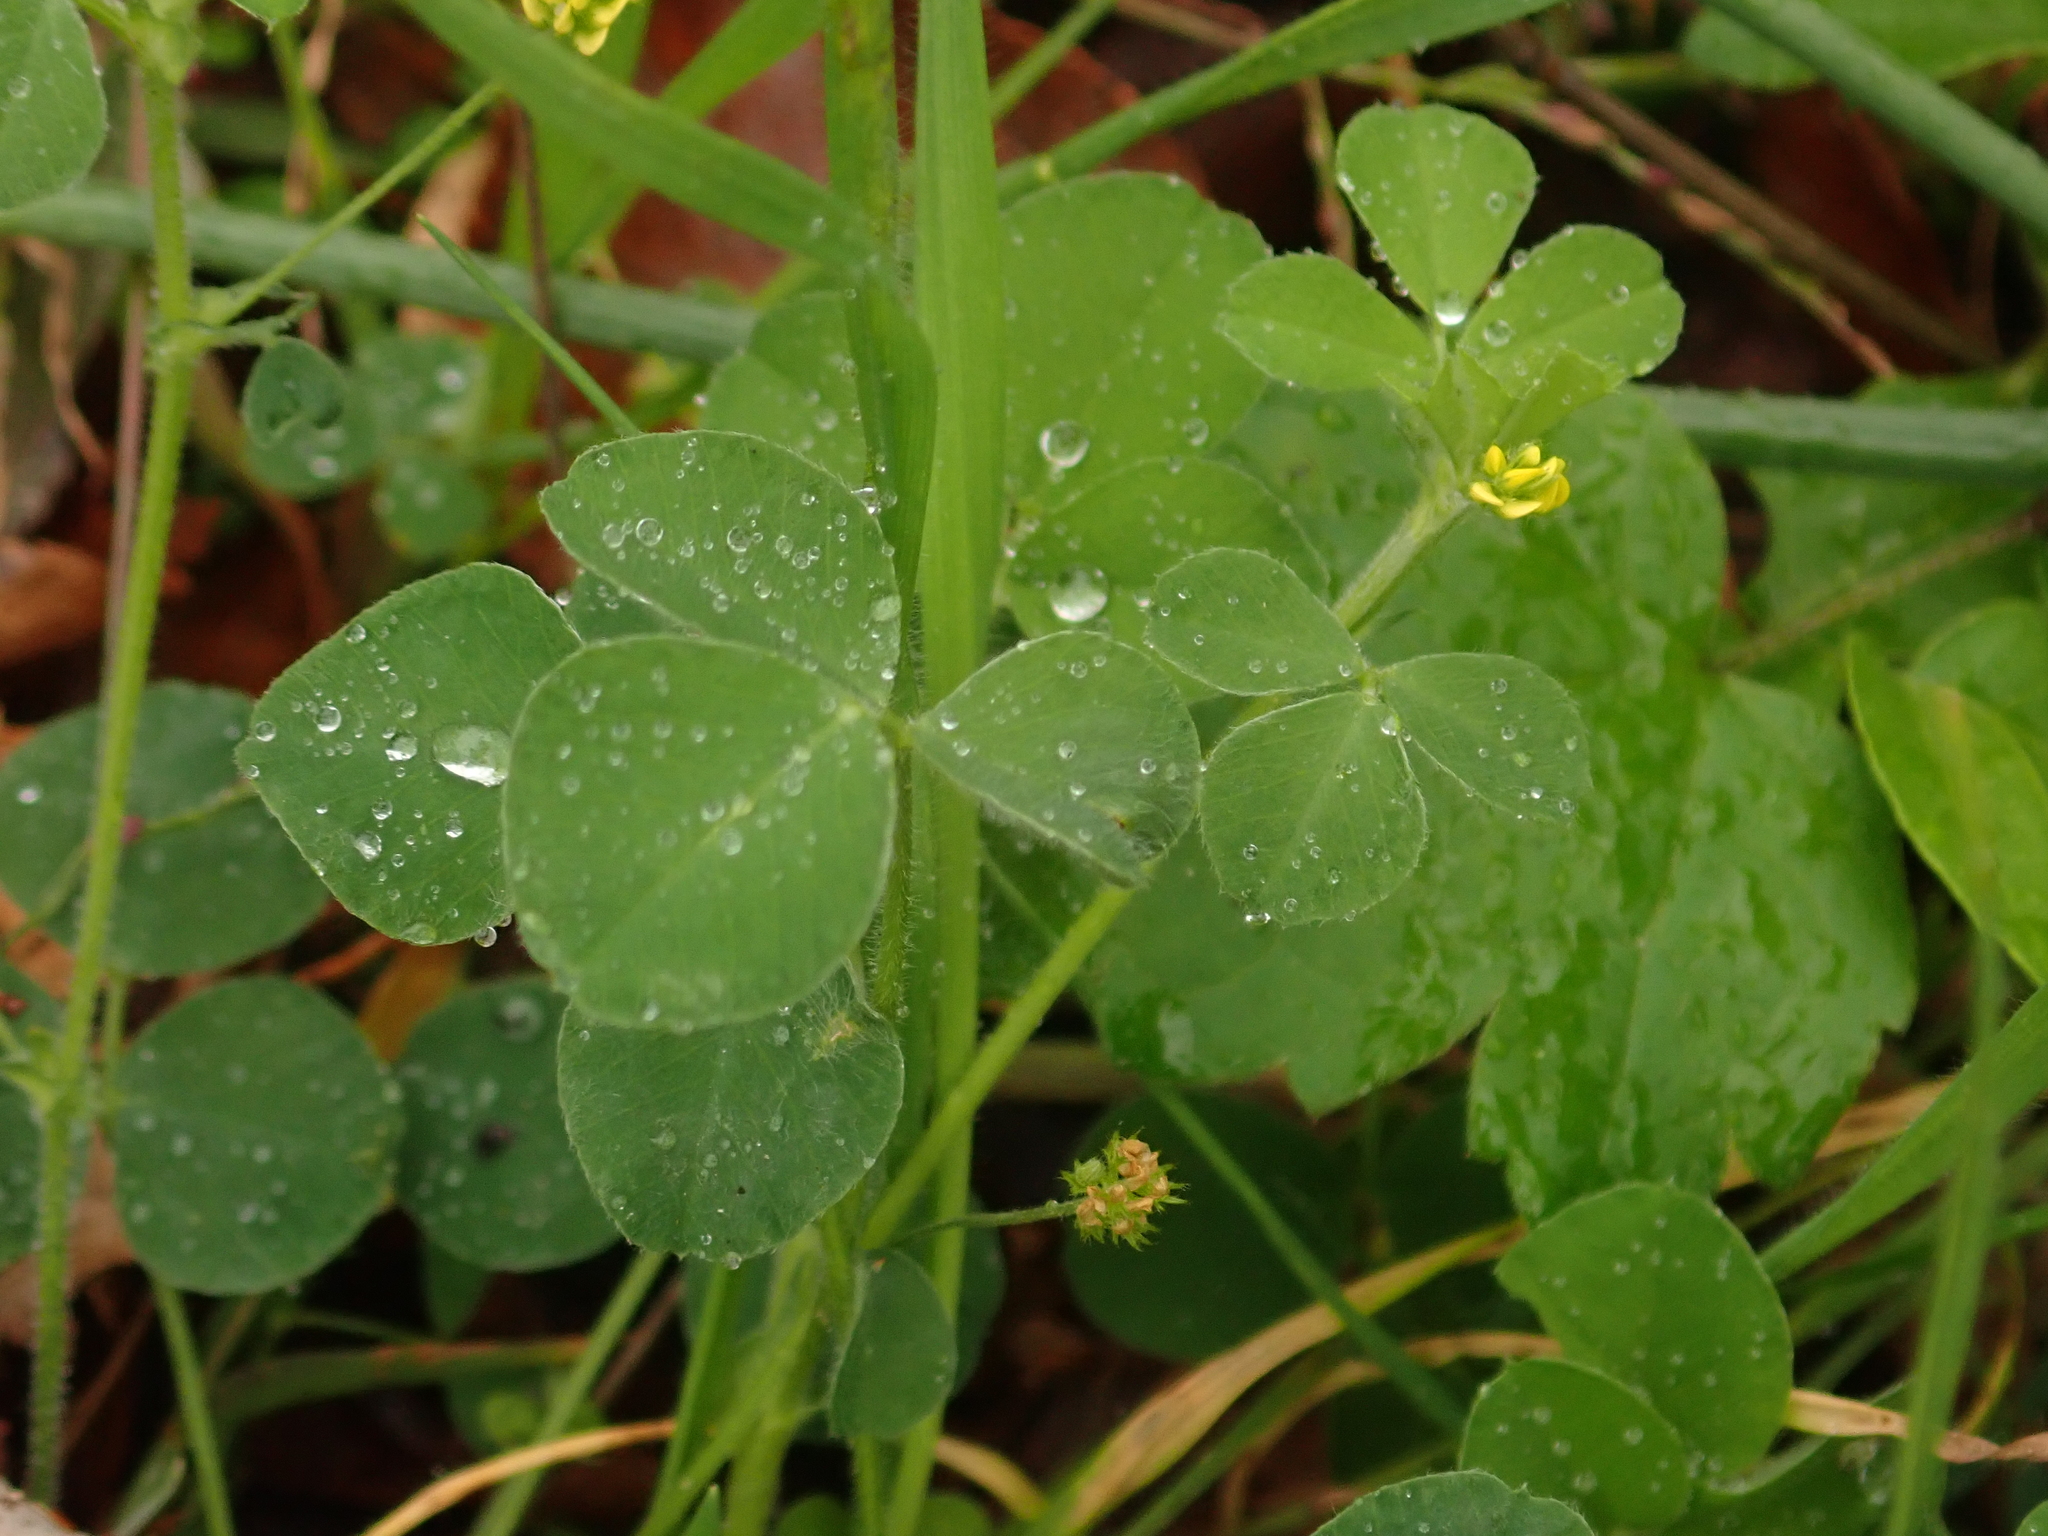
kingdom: Plantae
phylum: Tracheophyta
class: Magnoliopsida
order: Fabales
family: Fabaceae
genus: Medicago
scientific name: Medicago lupulina
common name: Black medick
